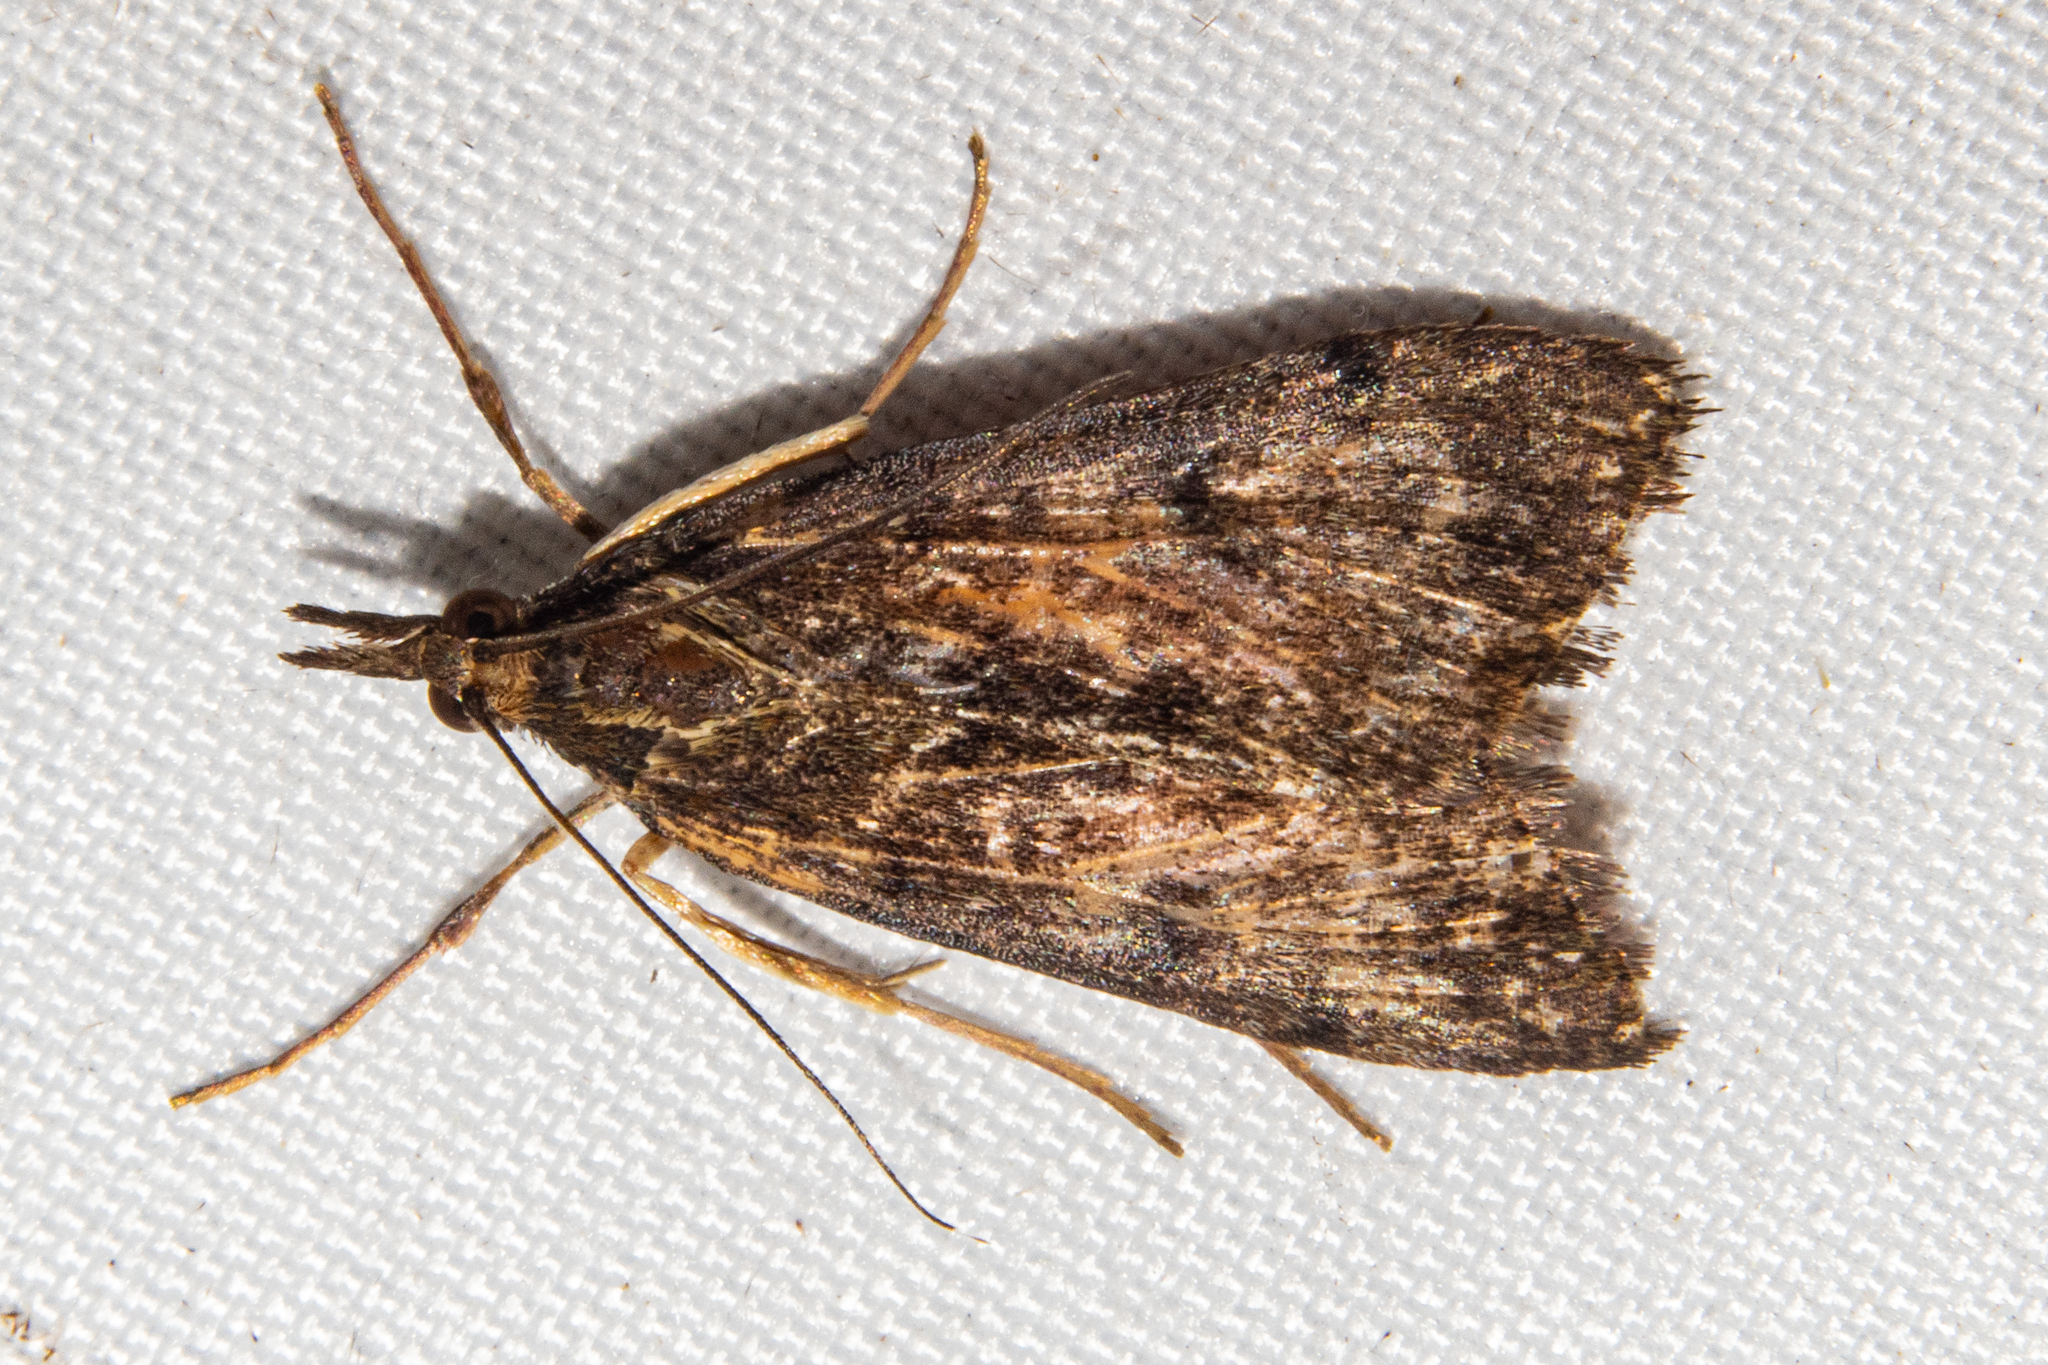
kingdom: Animalia
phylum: Arthropoda
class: Insecta
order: Lepidoptera
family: Crambidae
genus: Achyra
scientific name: Achyra affinitalis
